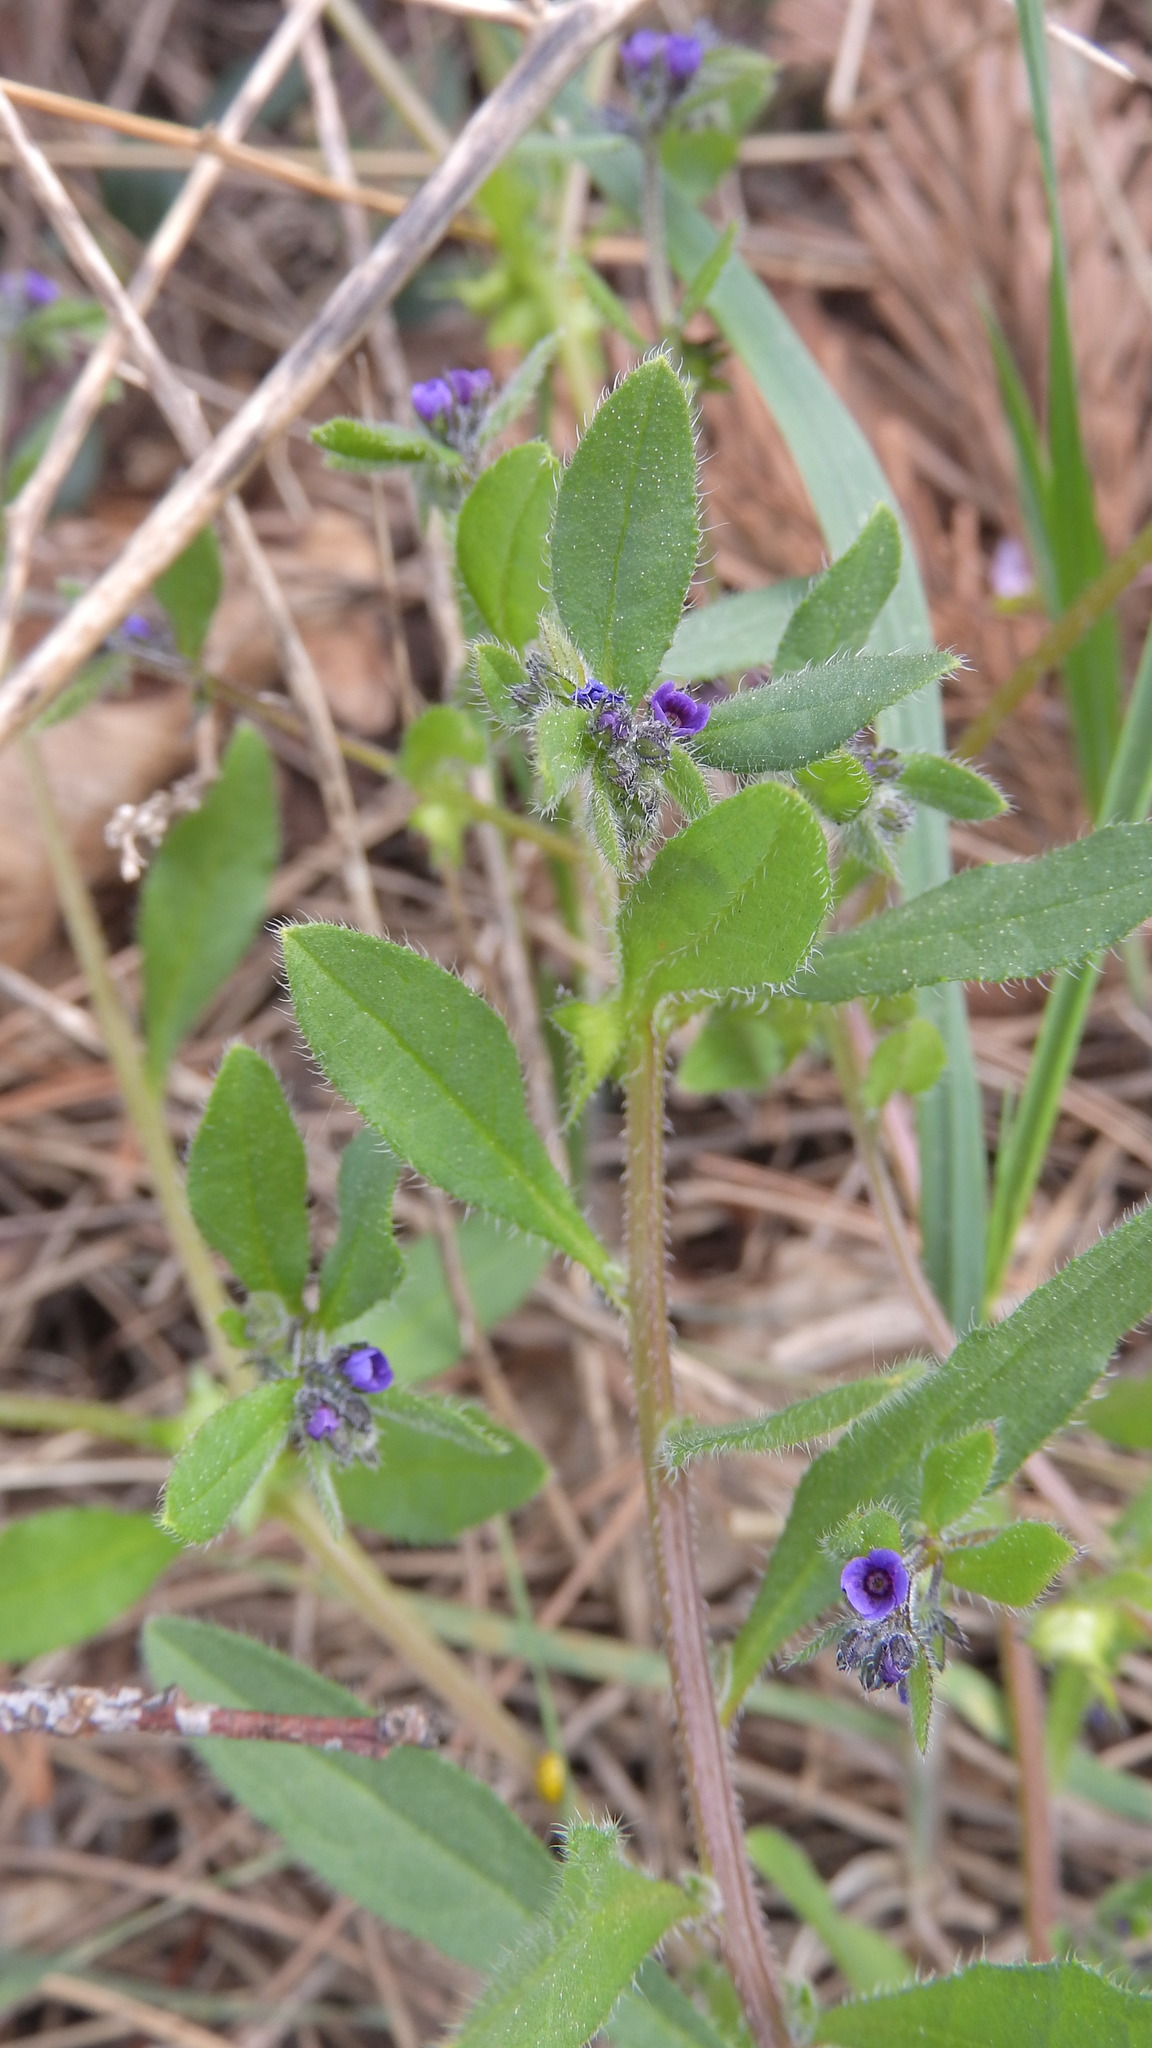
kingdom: Plantae
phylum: Tracheophyta
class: Magnoliopsida
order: Boraginales
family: Boraginaceae
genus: Asperugo
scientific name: Asperugo procumbens
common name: Madwort
